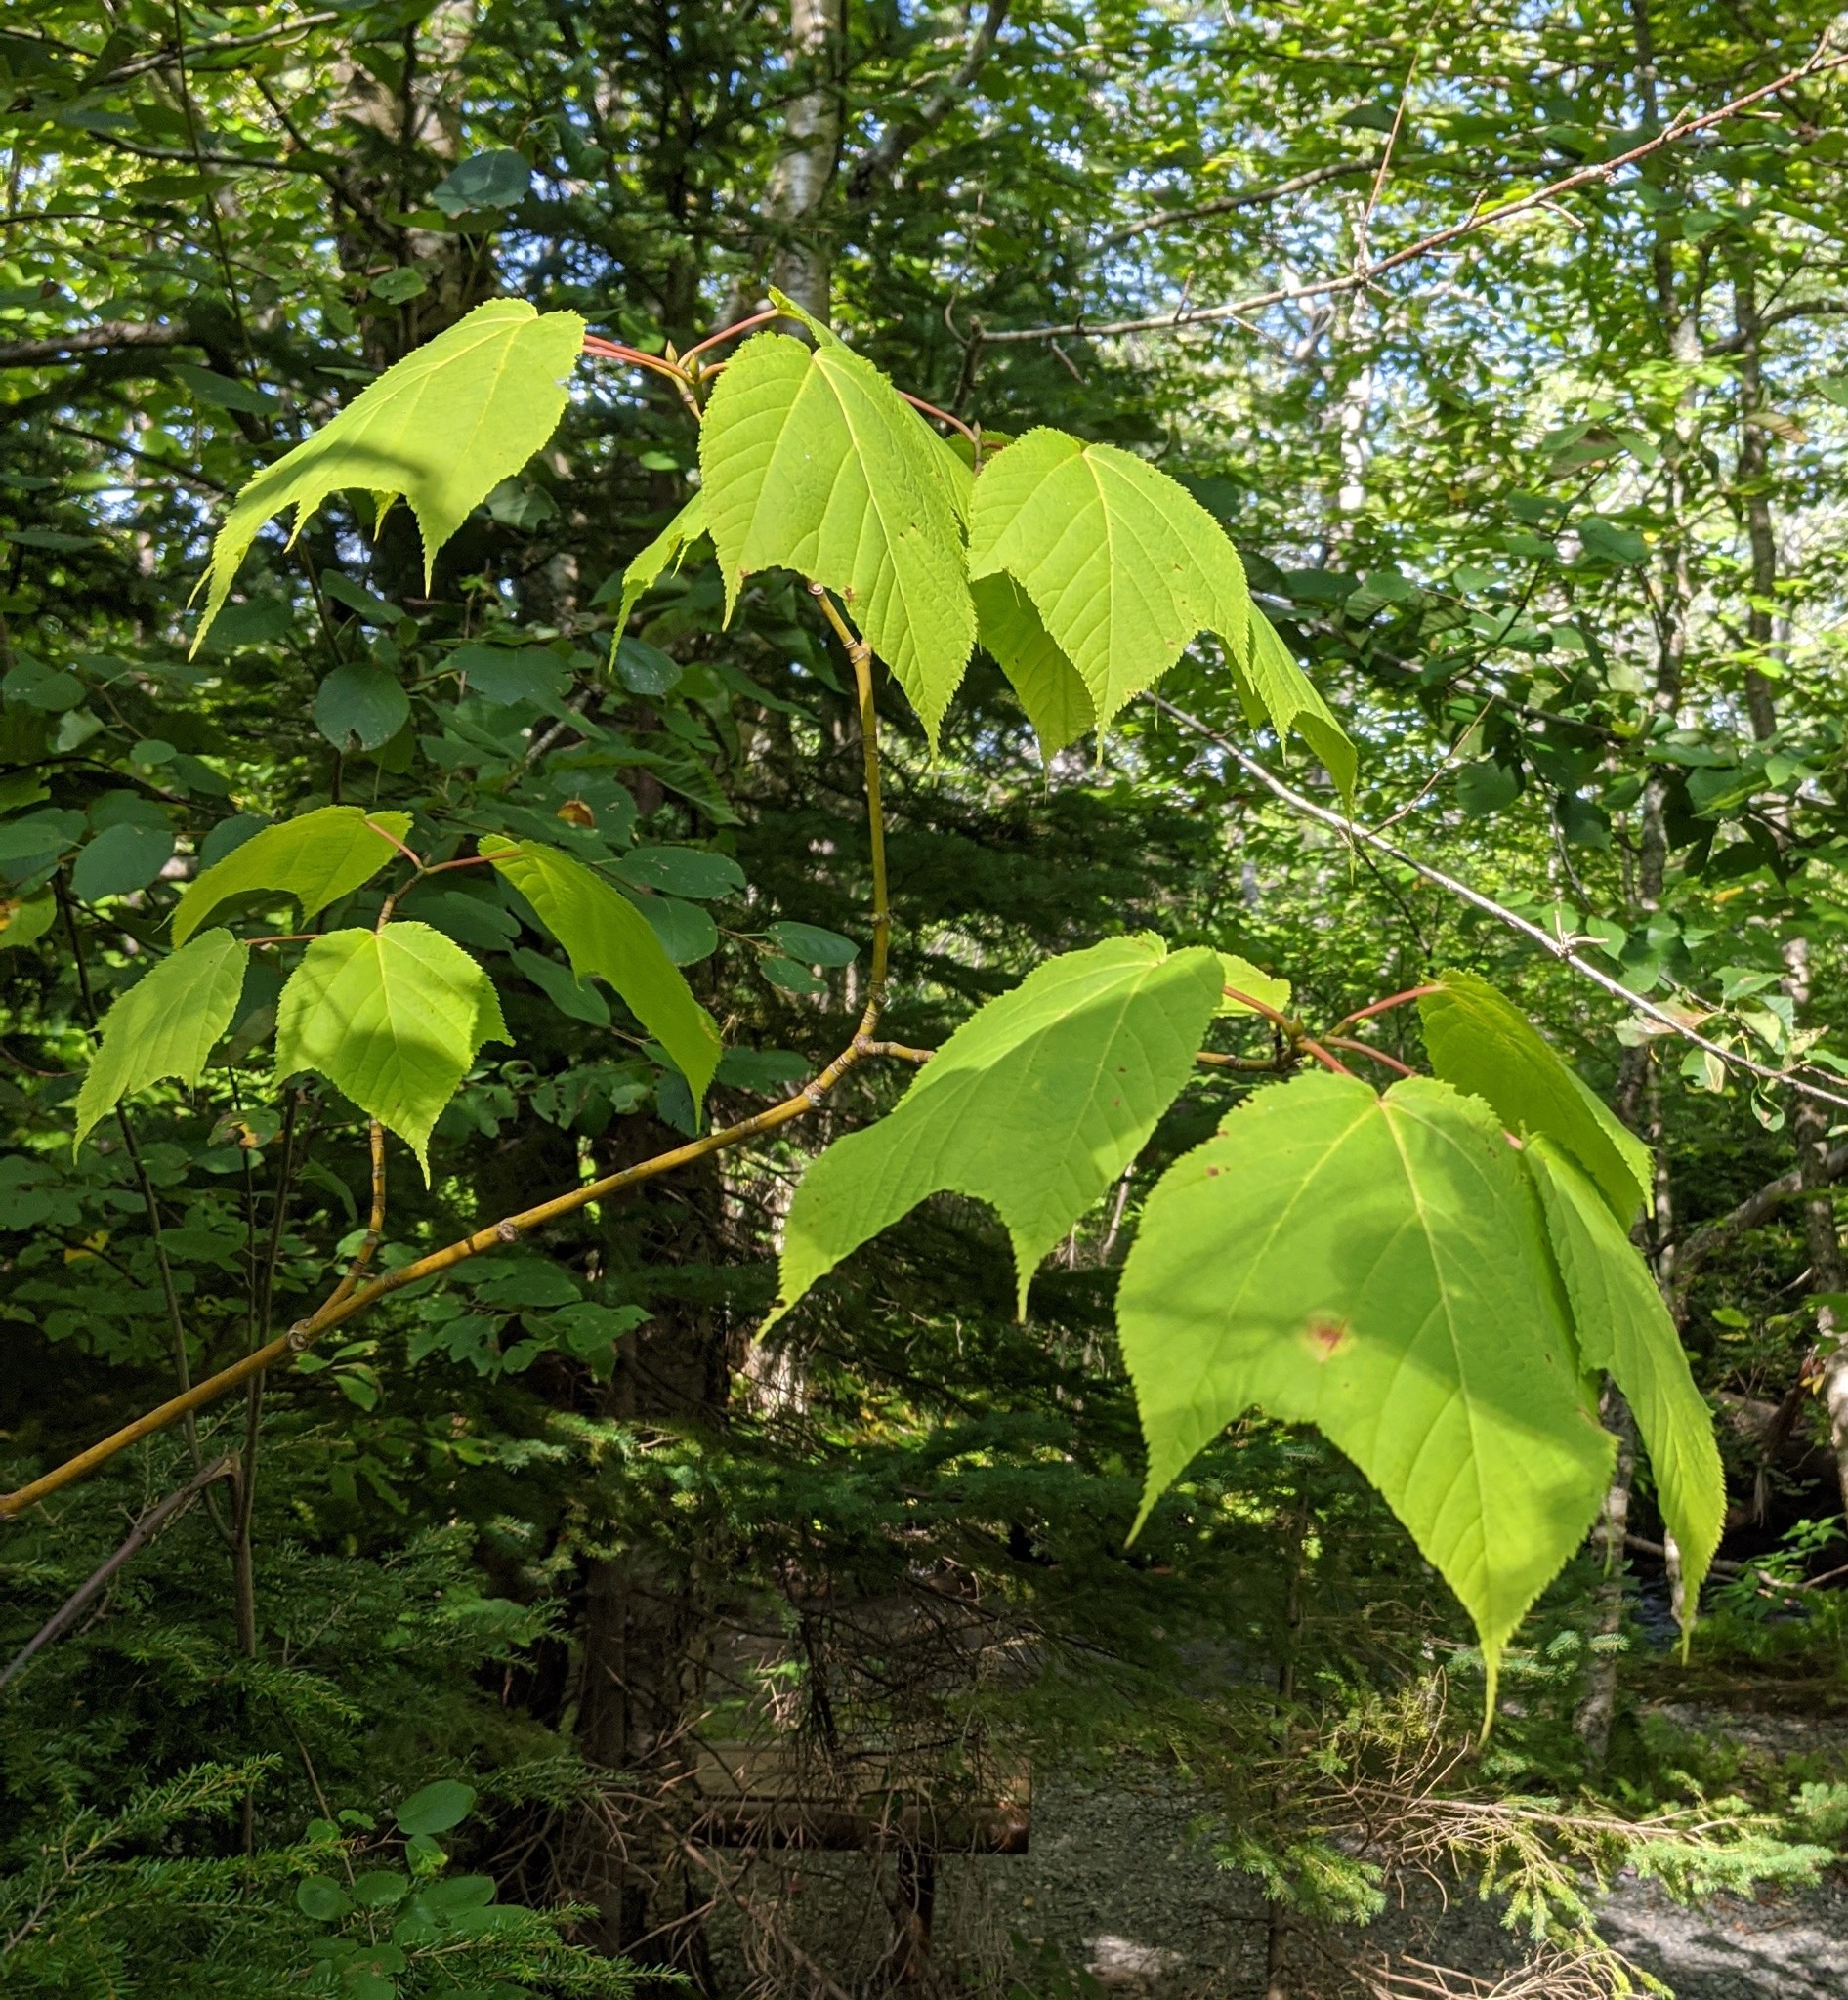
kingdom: Plantae
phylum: Tracheophyta
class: Magnoliopsida
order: Sapindales
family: Sapindaceae
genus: Acer
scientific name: Acer pensylvanicum
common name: Moosewood
